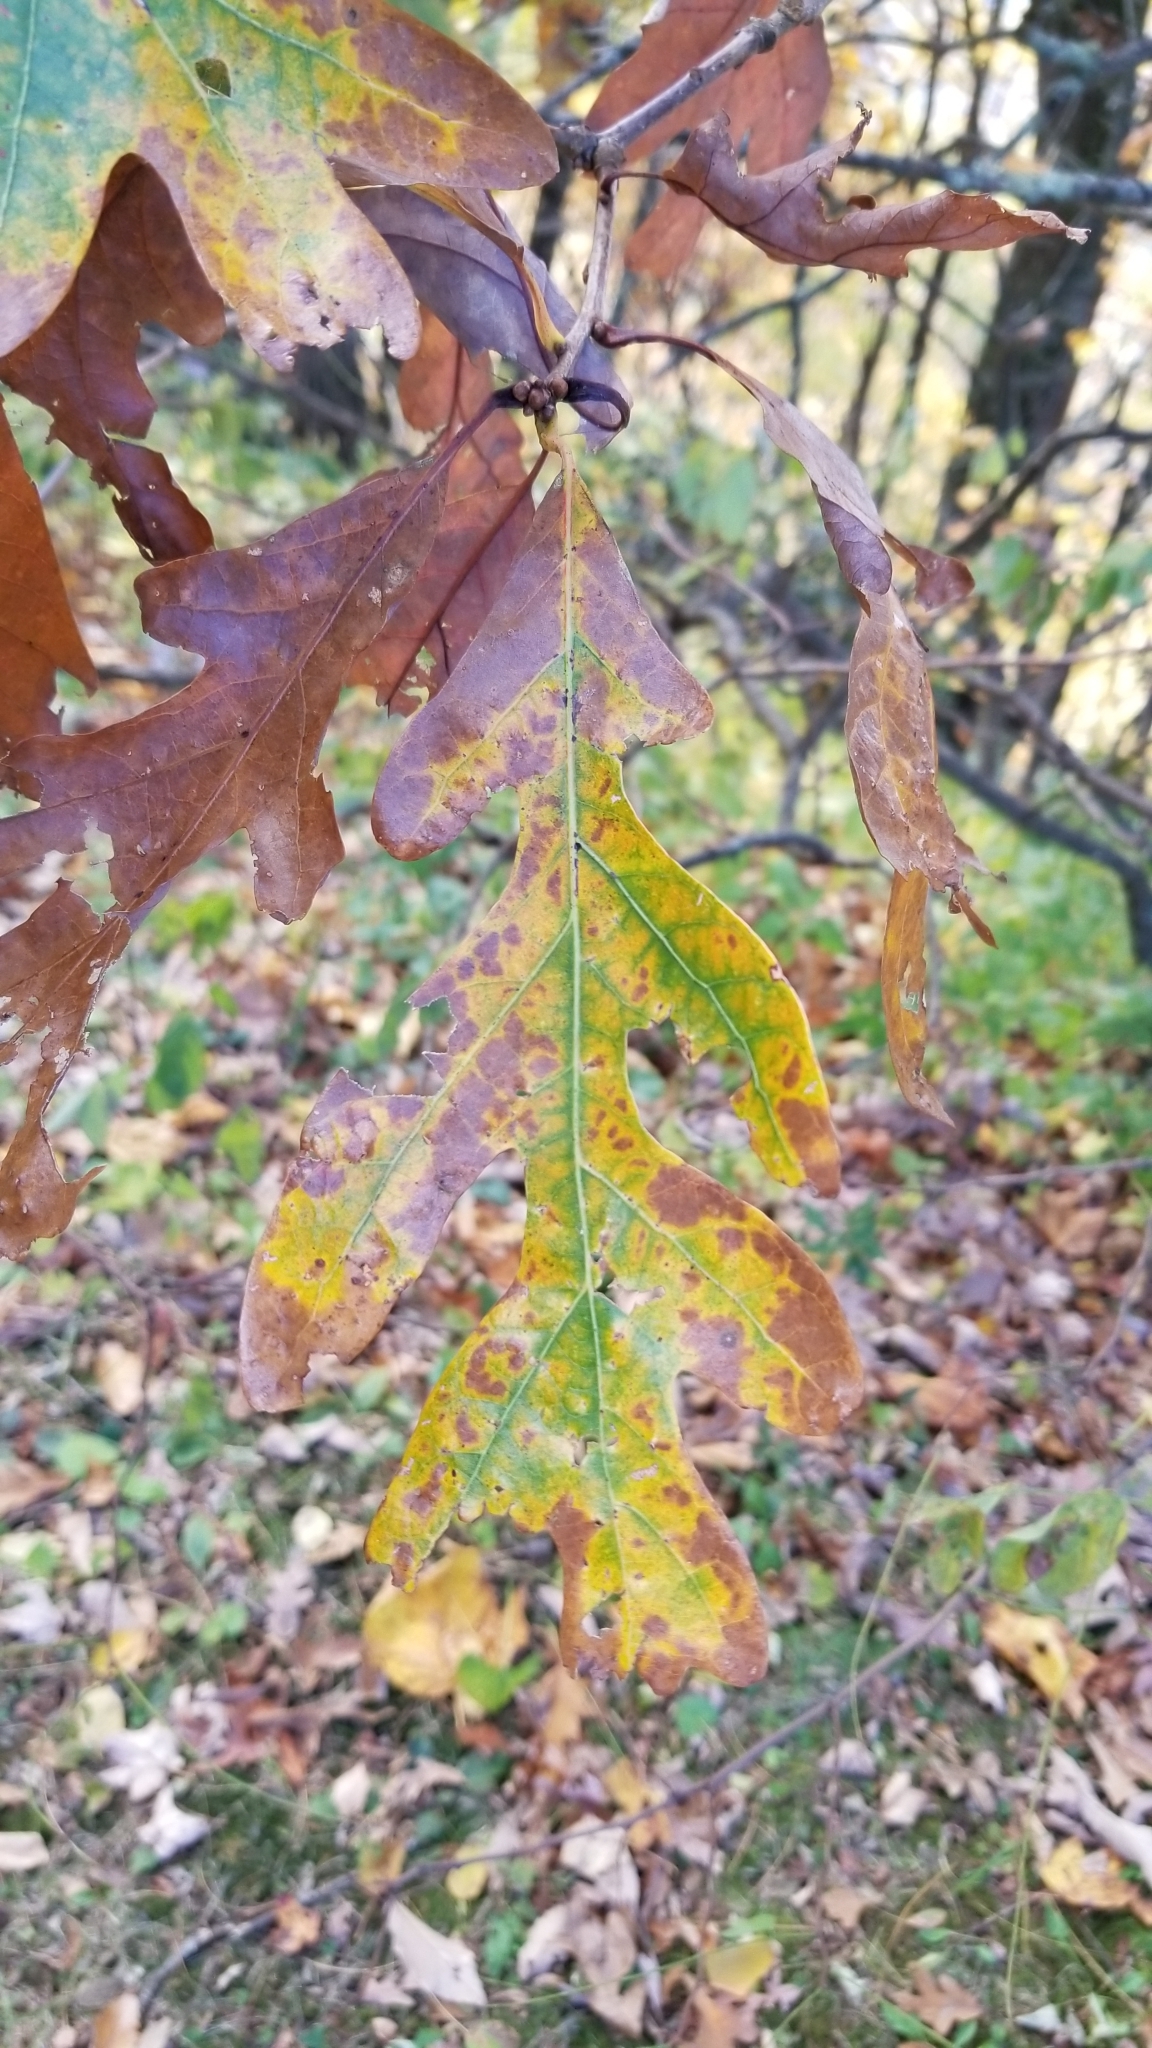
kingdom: Plantae
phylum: Tracheophyta
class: Magnoliopsida
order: Fagales
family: Fagaceae
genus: Quercus
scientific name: Quercus alba
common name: White oak
